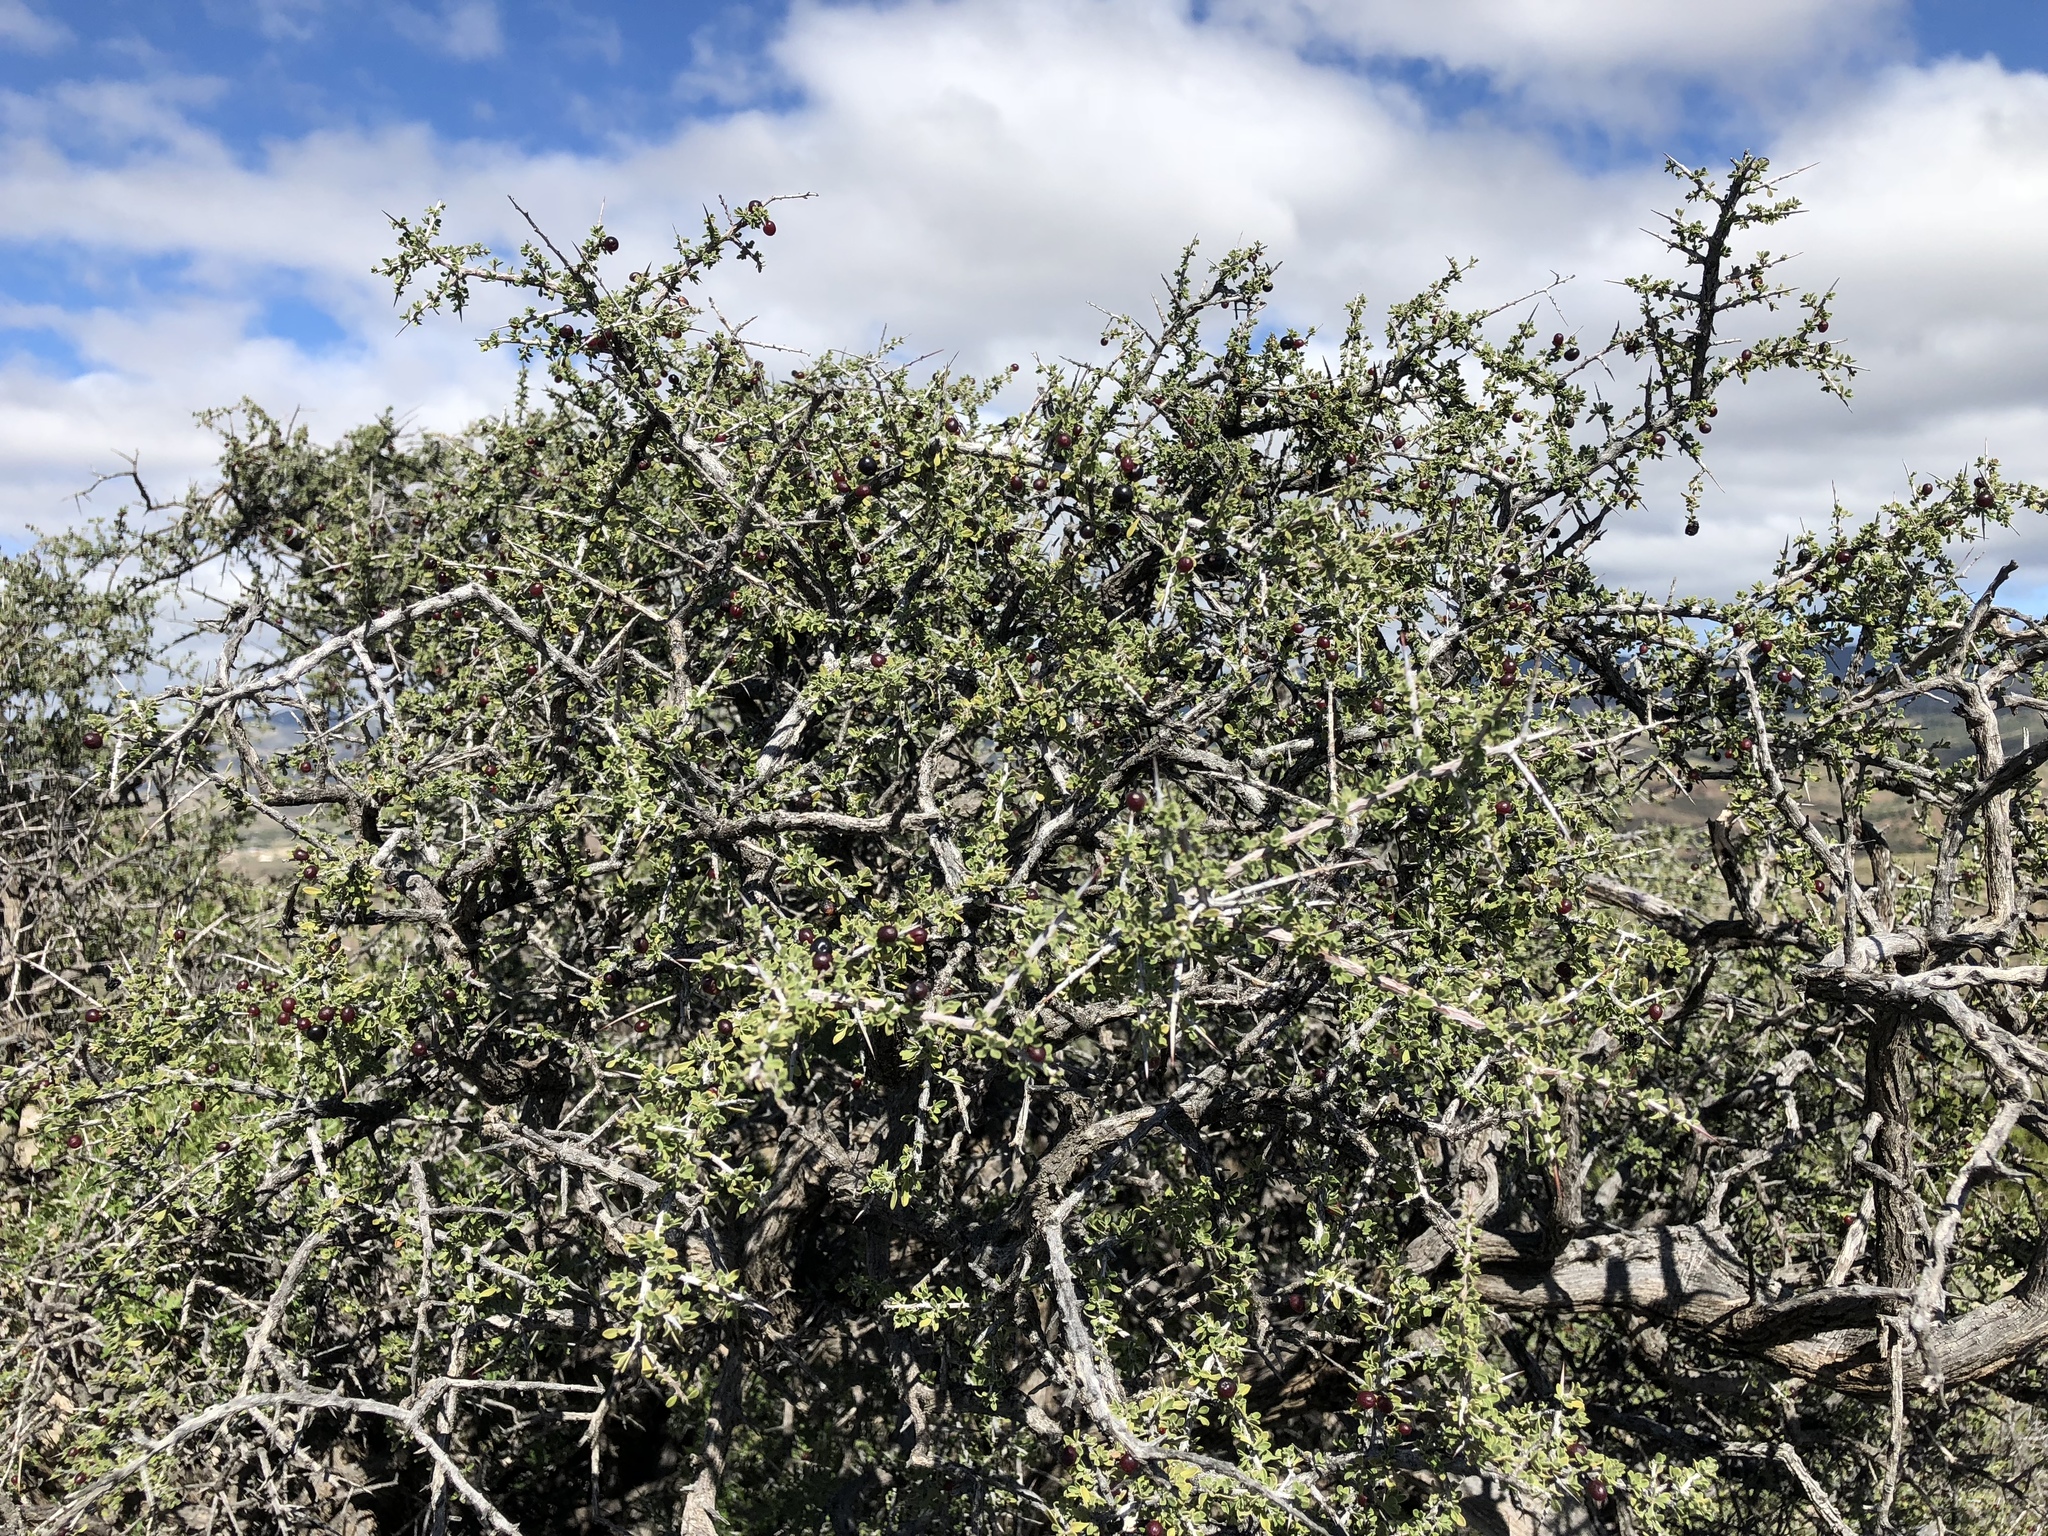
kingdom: Plantae
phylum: Tracheophyta
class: Magnoliopsida
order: Rosales
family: Rhamnaceae
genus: Condalia
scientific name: Condalia warnockii
